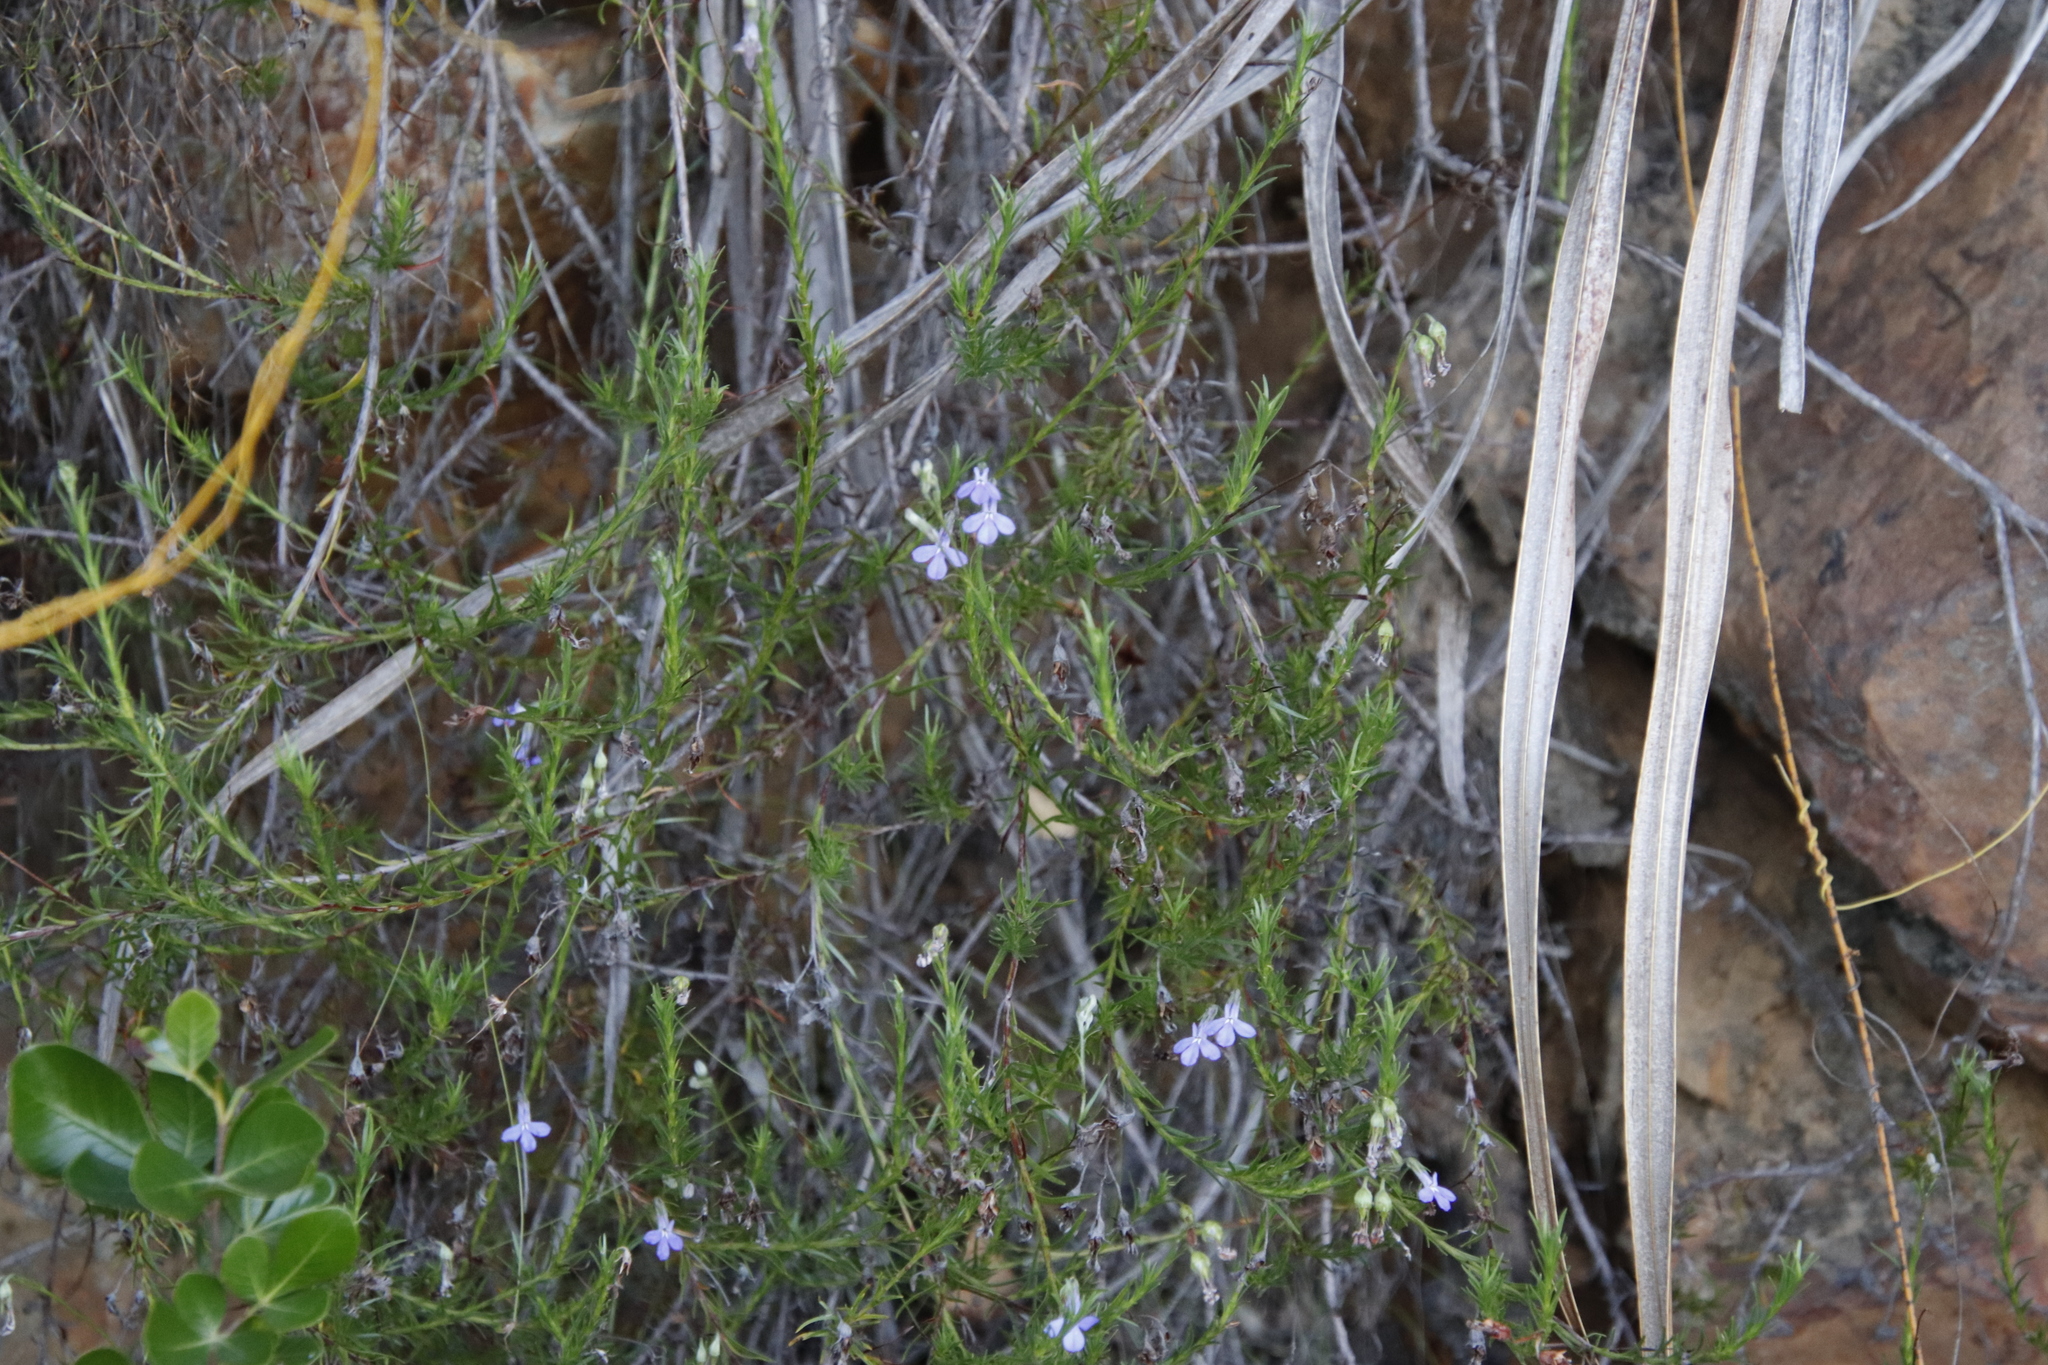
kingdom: Plantae
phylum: Tracheophyta
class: Magnoliopsida
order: Asterales
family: Campanulaceae
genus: Lobelia
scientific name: Lobelia pinifolia
